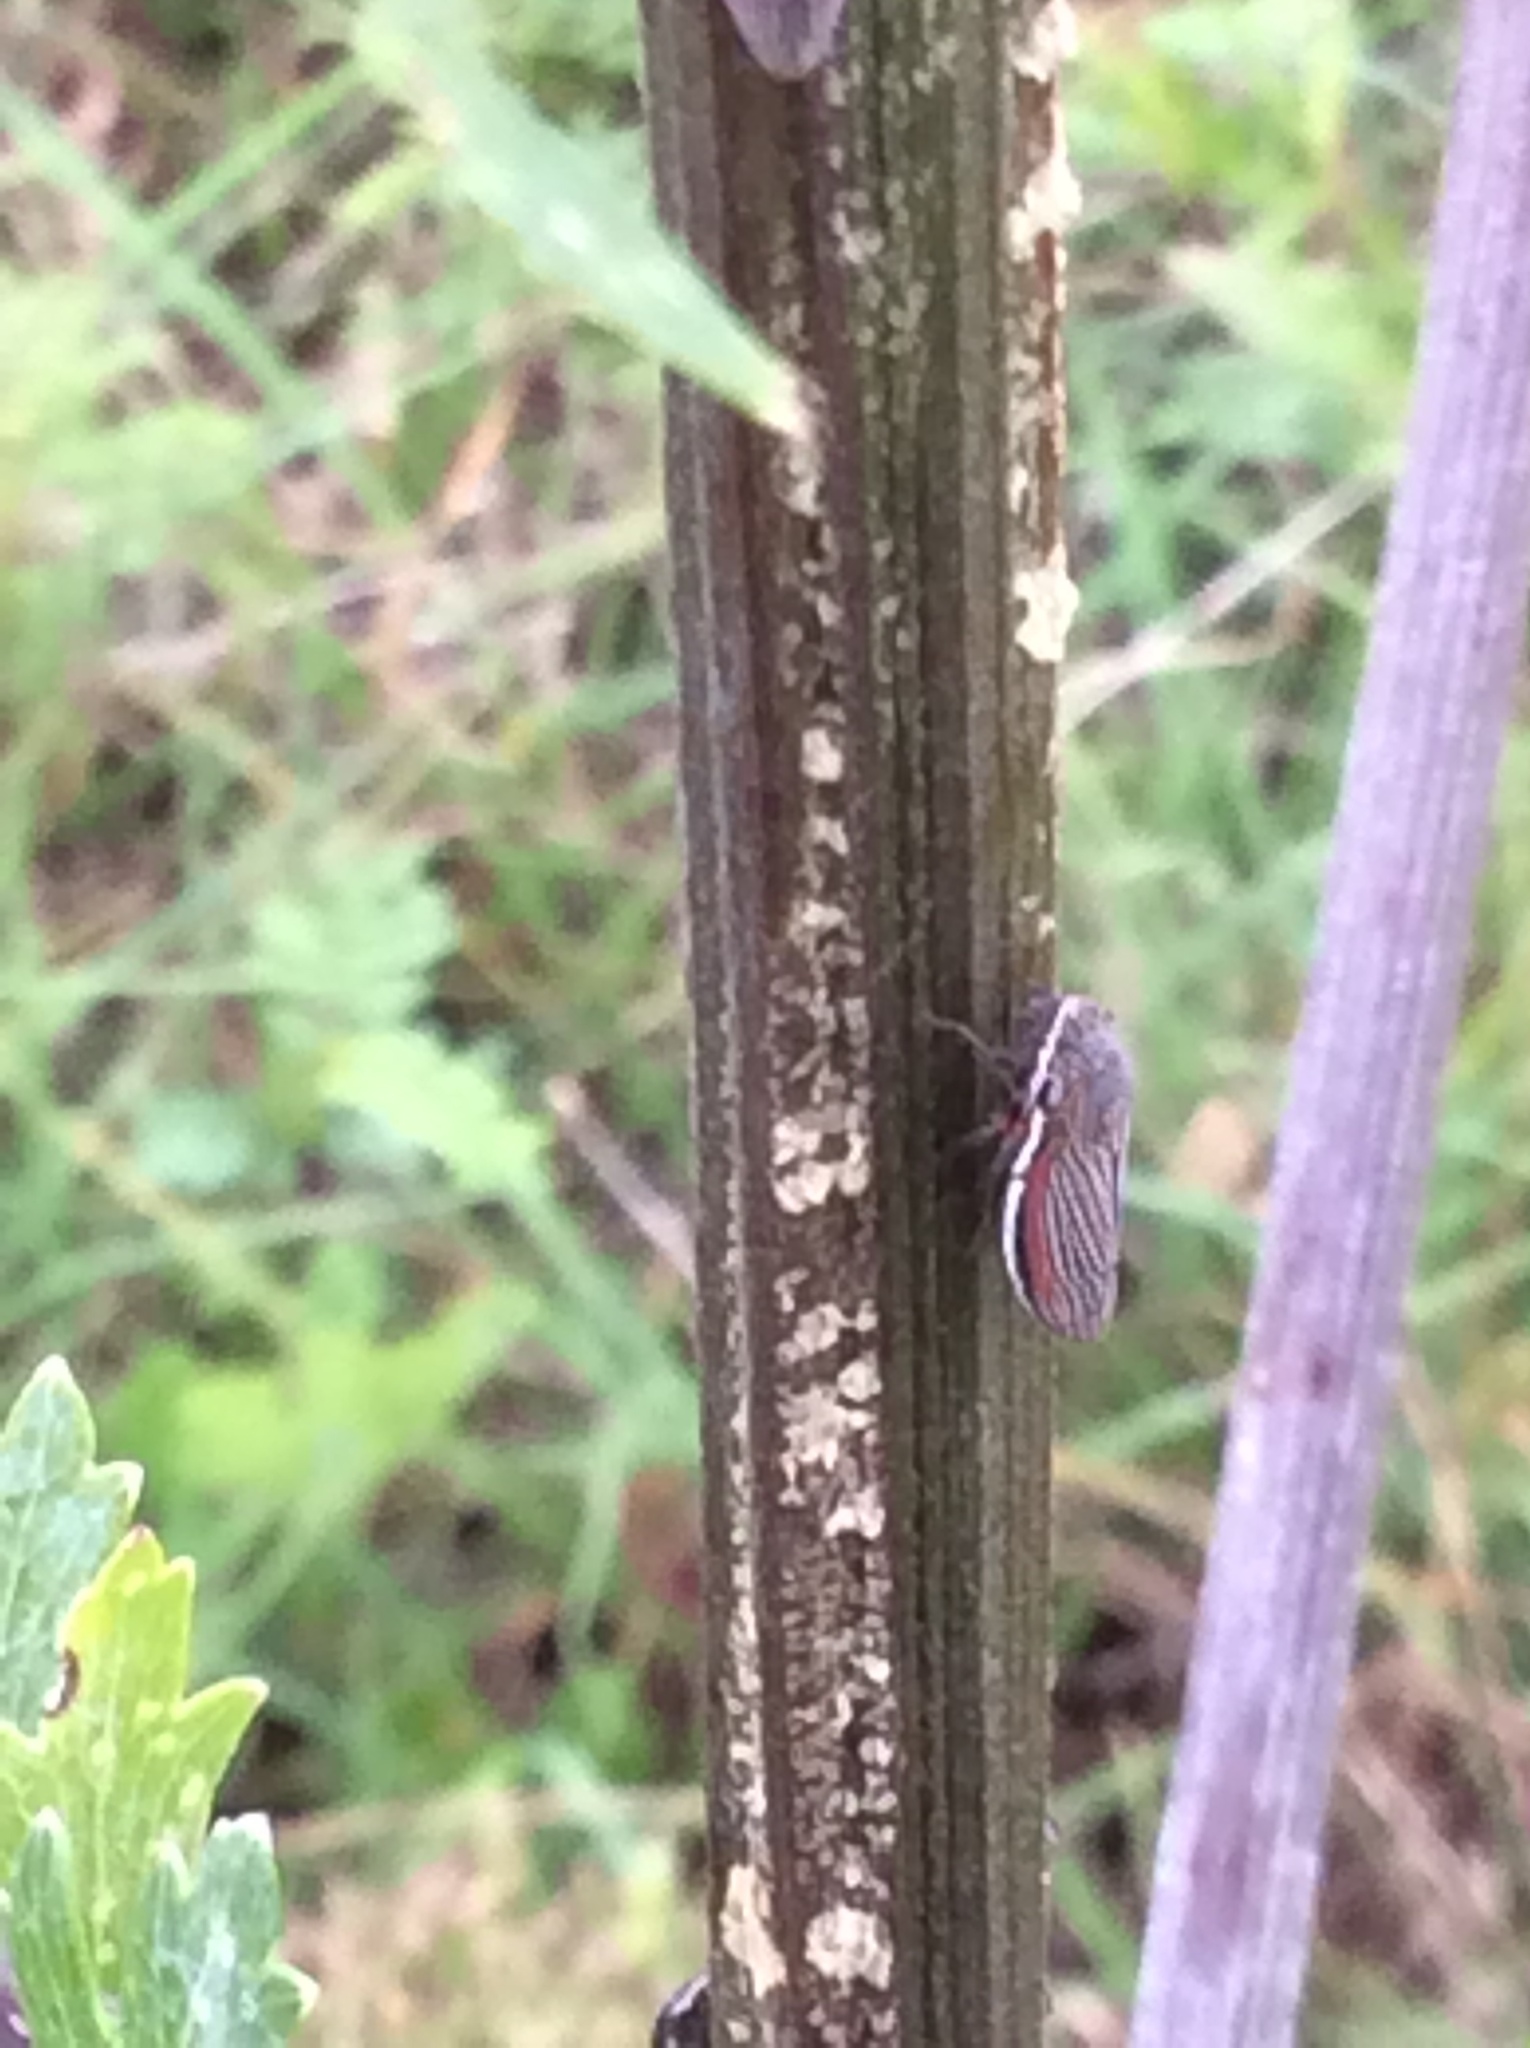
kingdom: Animalia
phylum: Arthropoda
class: Insecta
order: Hemiptera
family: Cicadellidae
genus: Cuerna
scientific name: Cuerna costalis
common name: Lateral-lined sharpshooter
